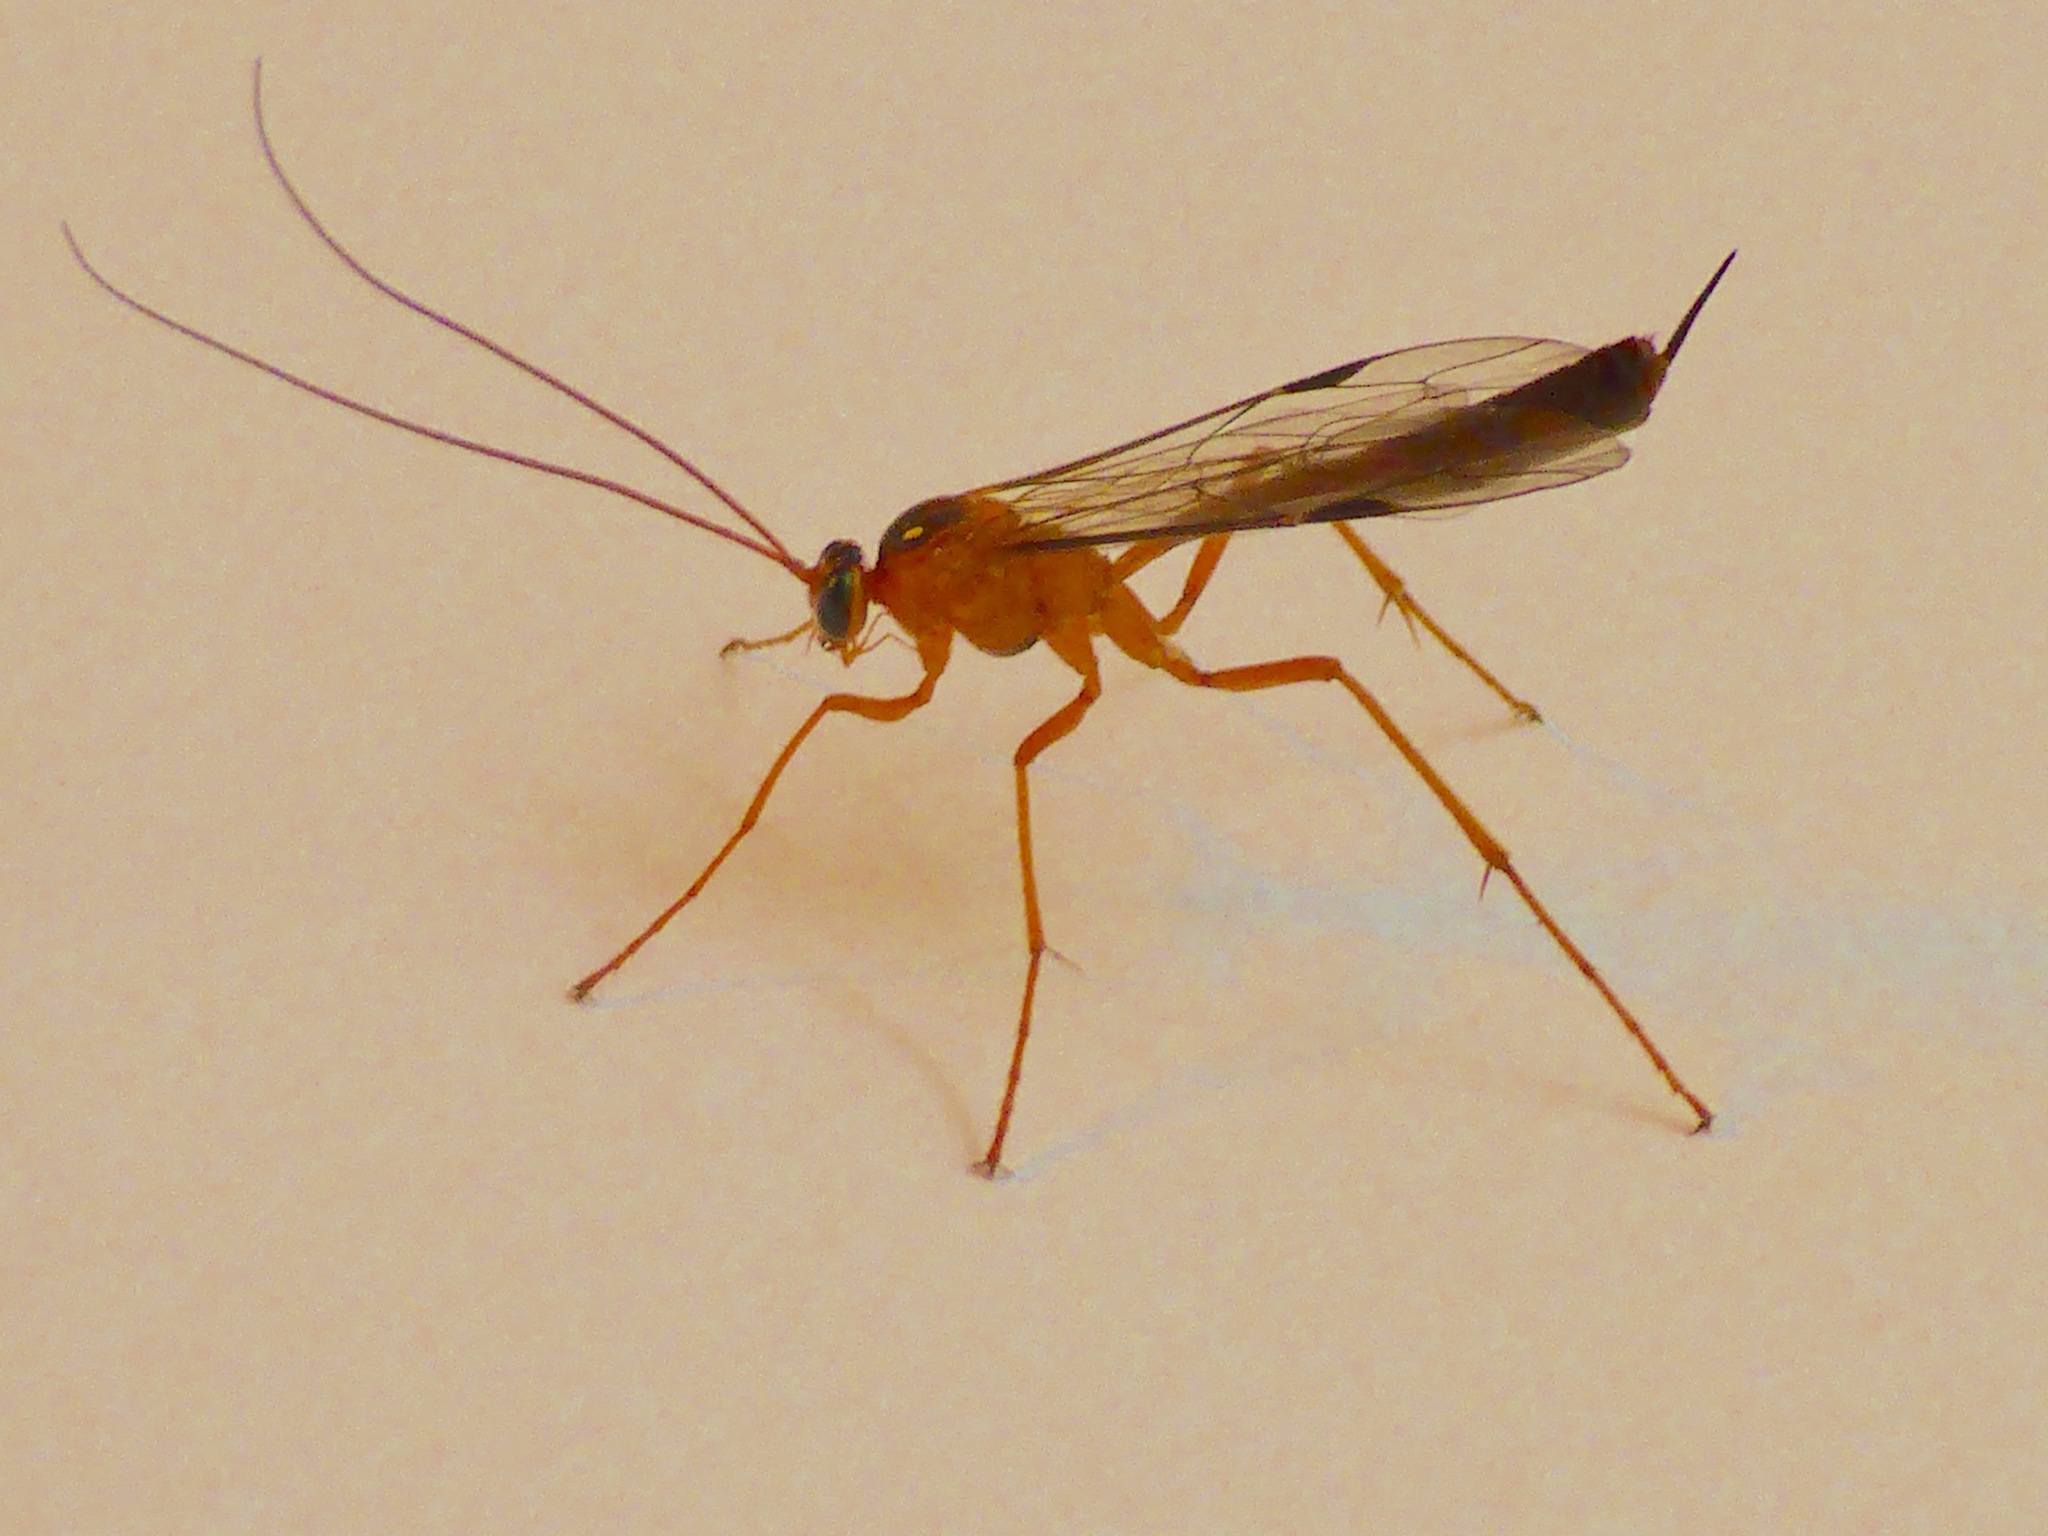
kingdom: Animalia
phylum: Arthropoda
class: Insecta
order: Hymenoptera
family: Ichneumonidae
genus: Netelia
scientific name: Netelia ephippiata
